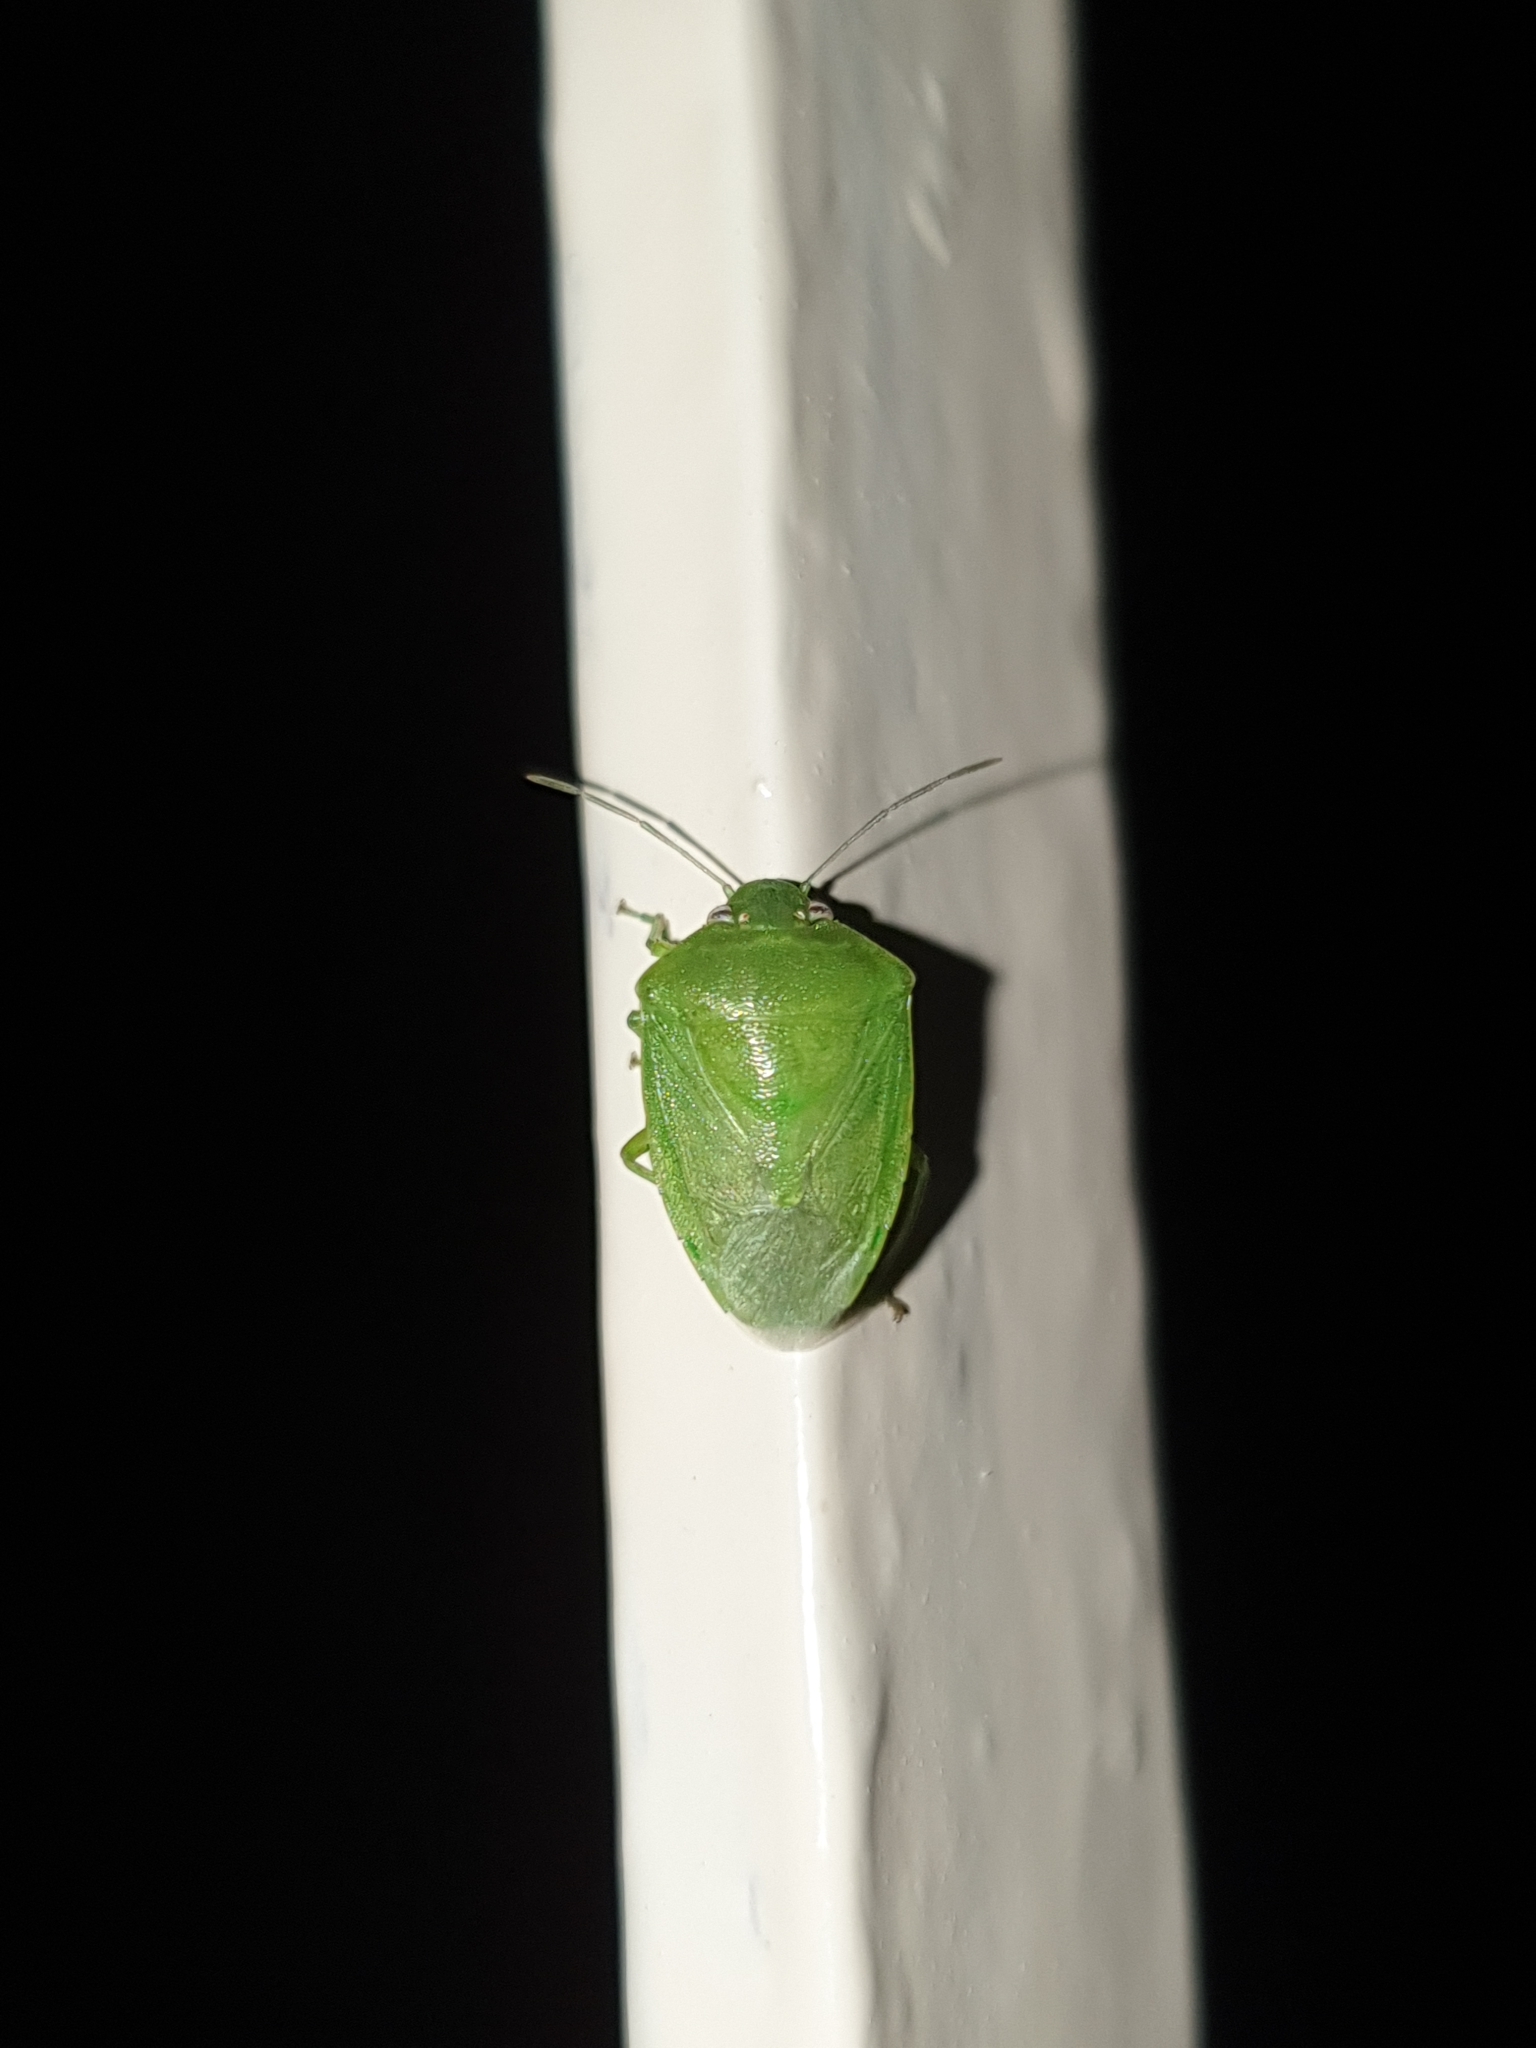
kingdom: Animalia
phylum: Arthropoda
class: Insecta
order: Hemiptera
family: Pentatomidae
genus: Acrosternum
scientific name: Acrosternum gramineum
